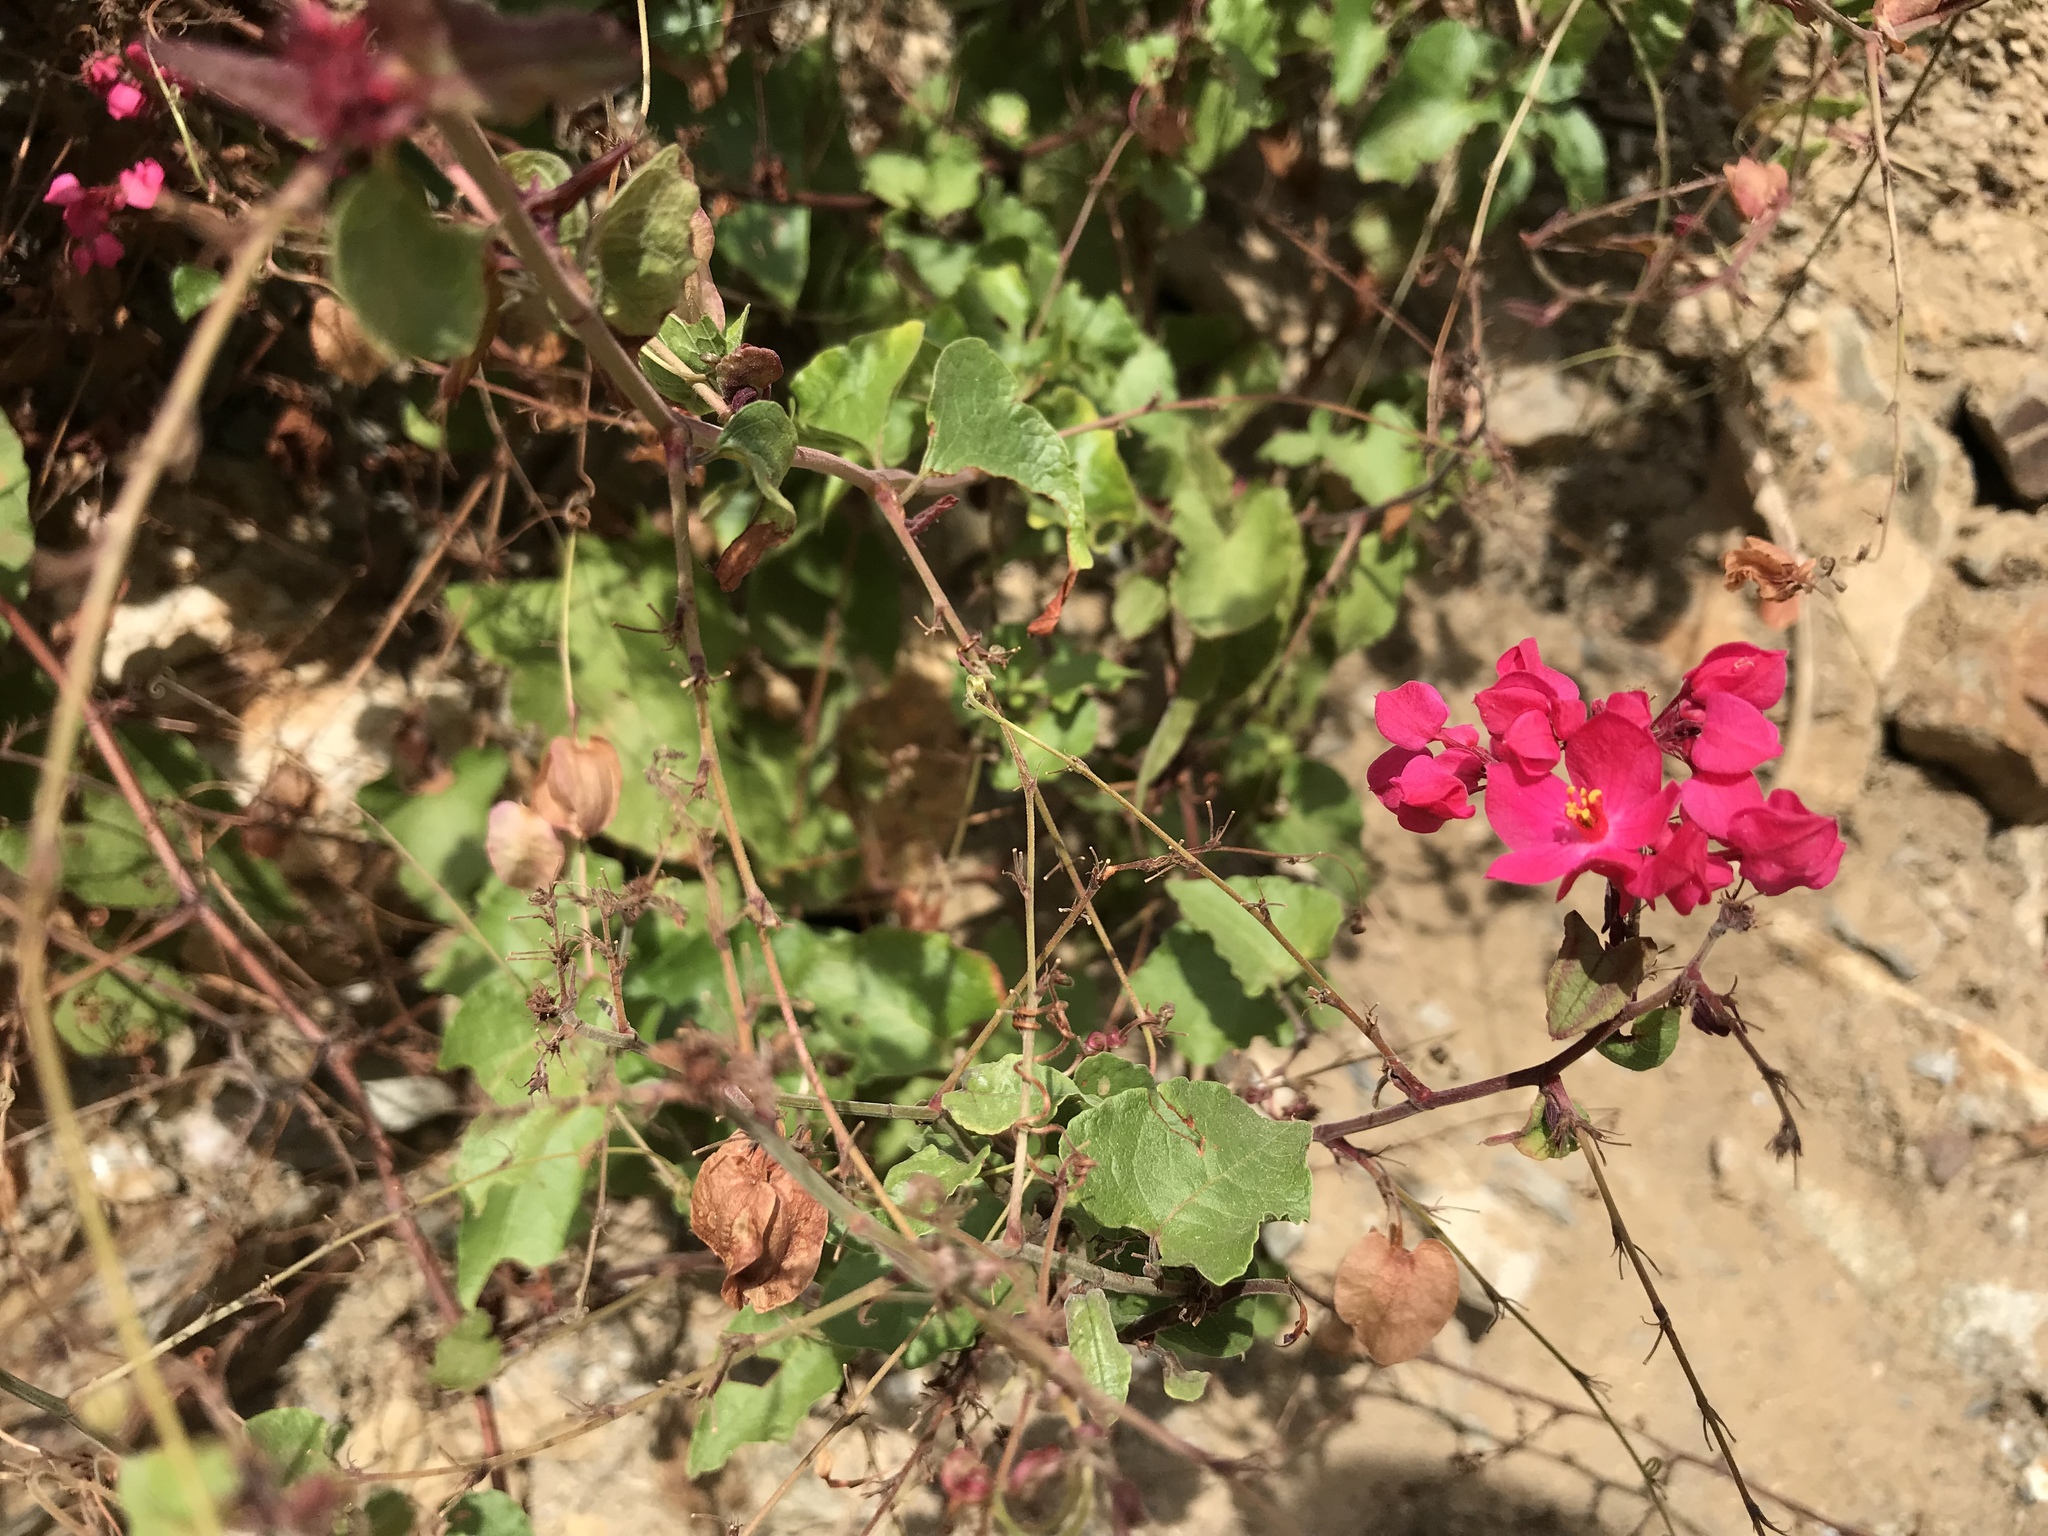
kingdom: Plantae
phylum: Tracheophyta
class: Magnoliopsida
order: Caryophyllales
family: Polygonaceae
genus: Antigonon
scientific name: Antigonon leptopus
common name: Coral vine
